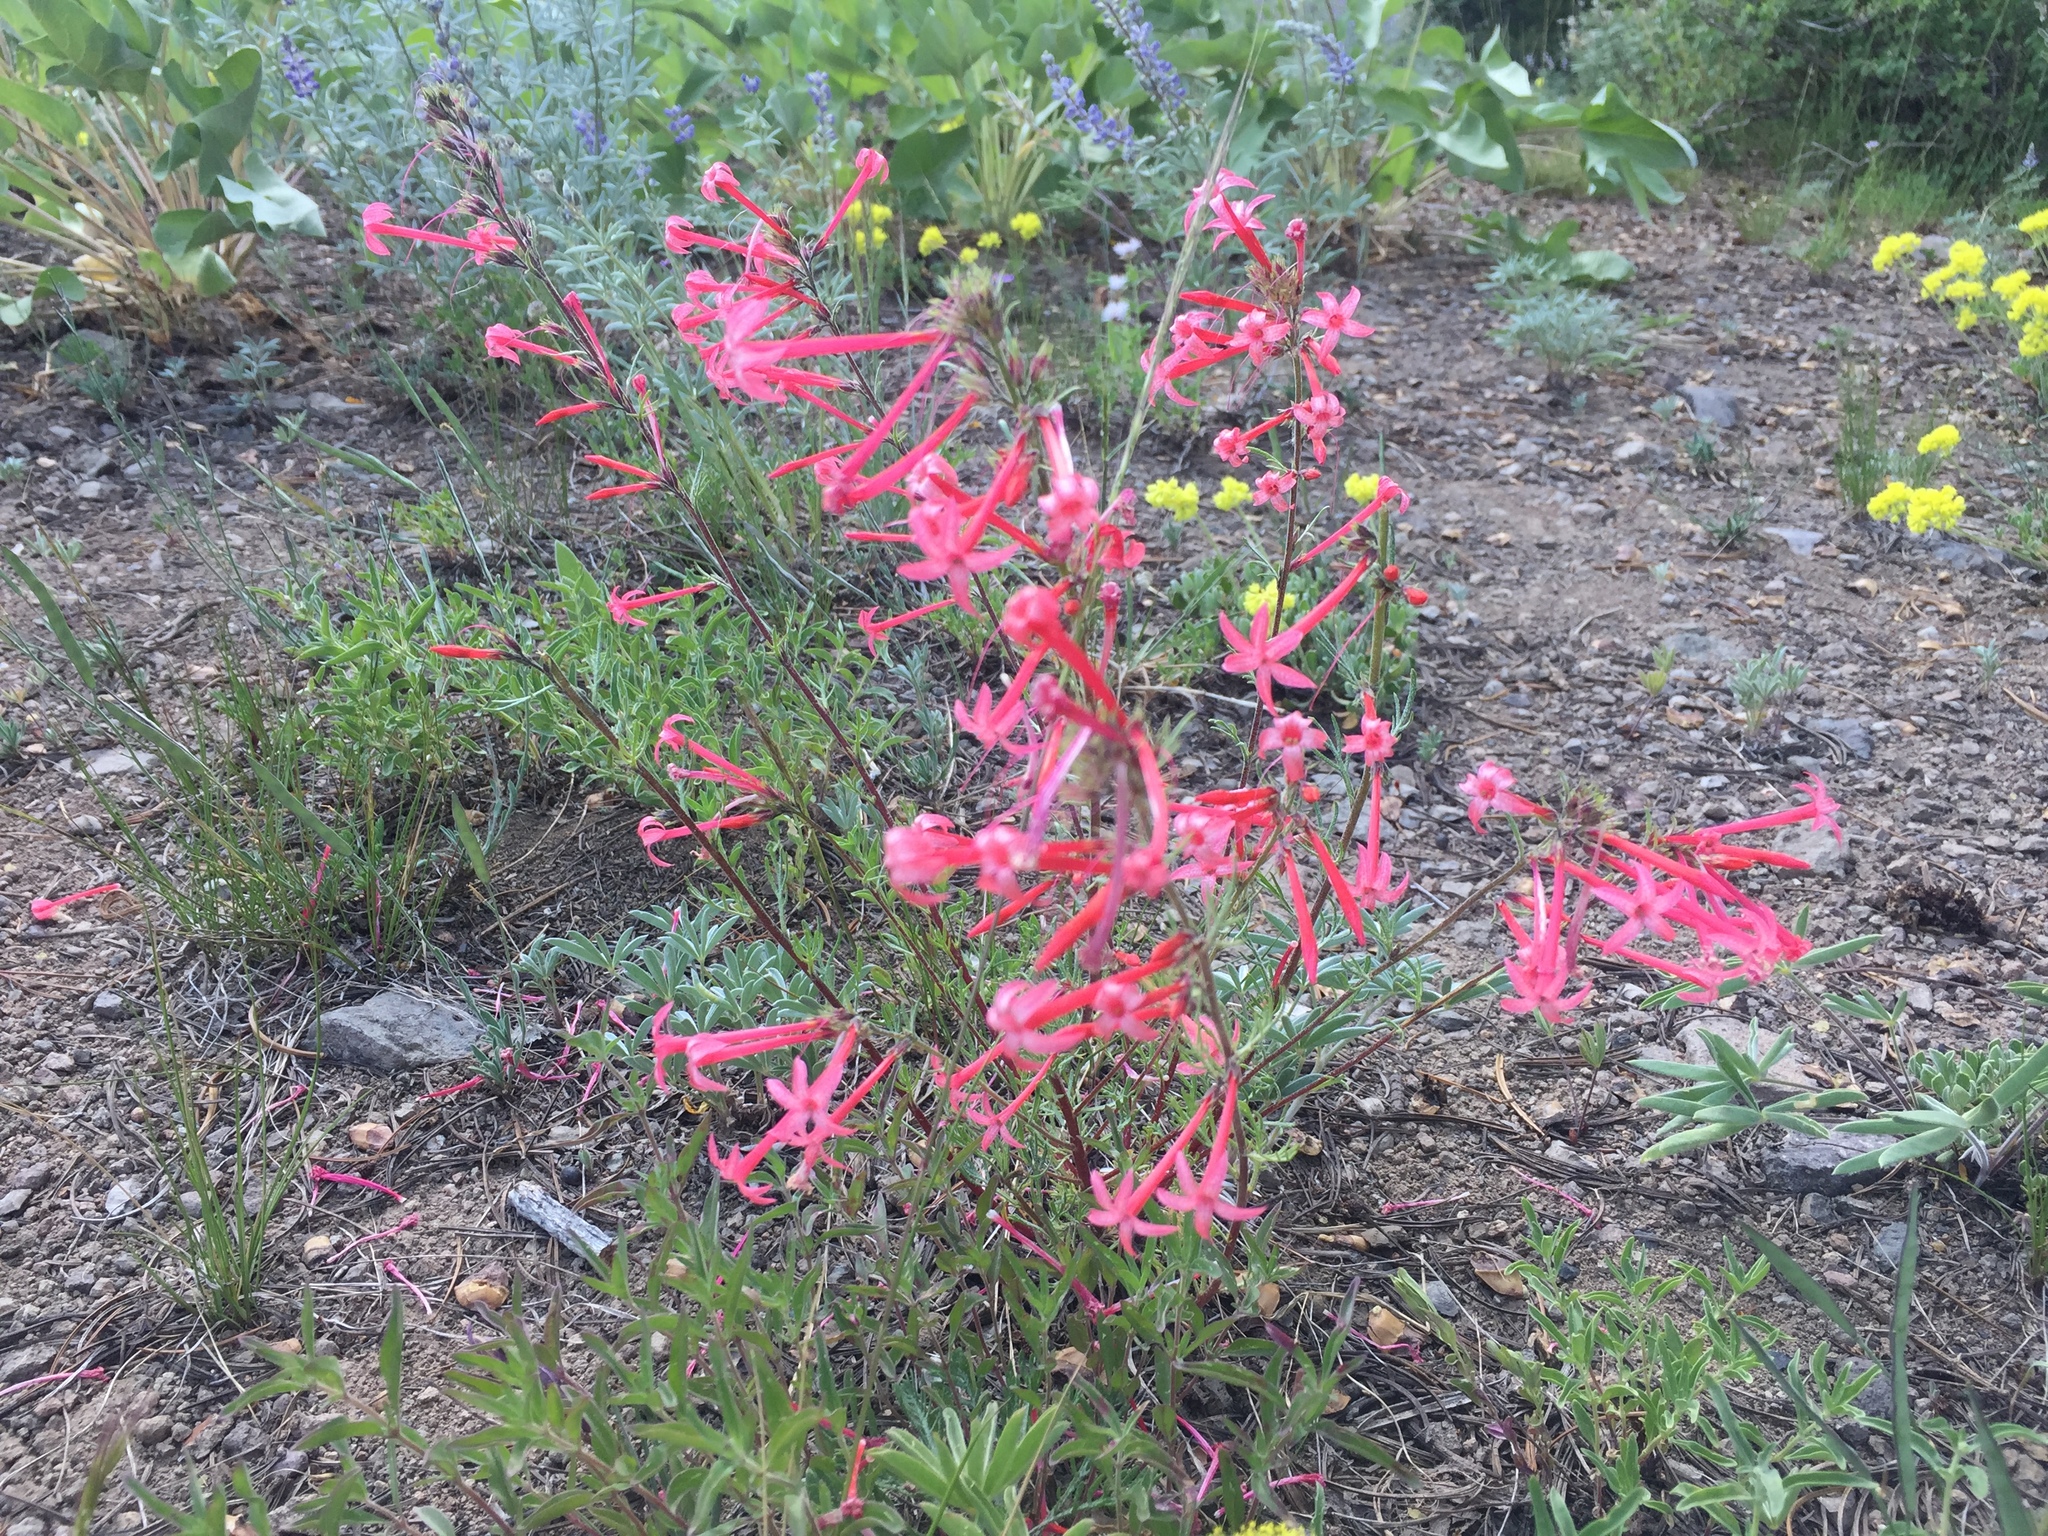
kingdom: Plantae
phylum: Tracheophyta
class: Magnoliopsida
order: Ericales
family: Polemoniaceae
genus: Ipomopsis
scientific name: Ipomopsis aggregata
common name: Scarlet gilia
